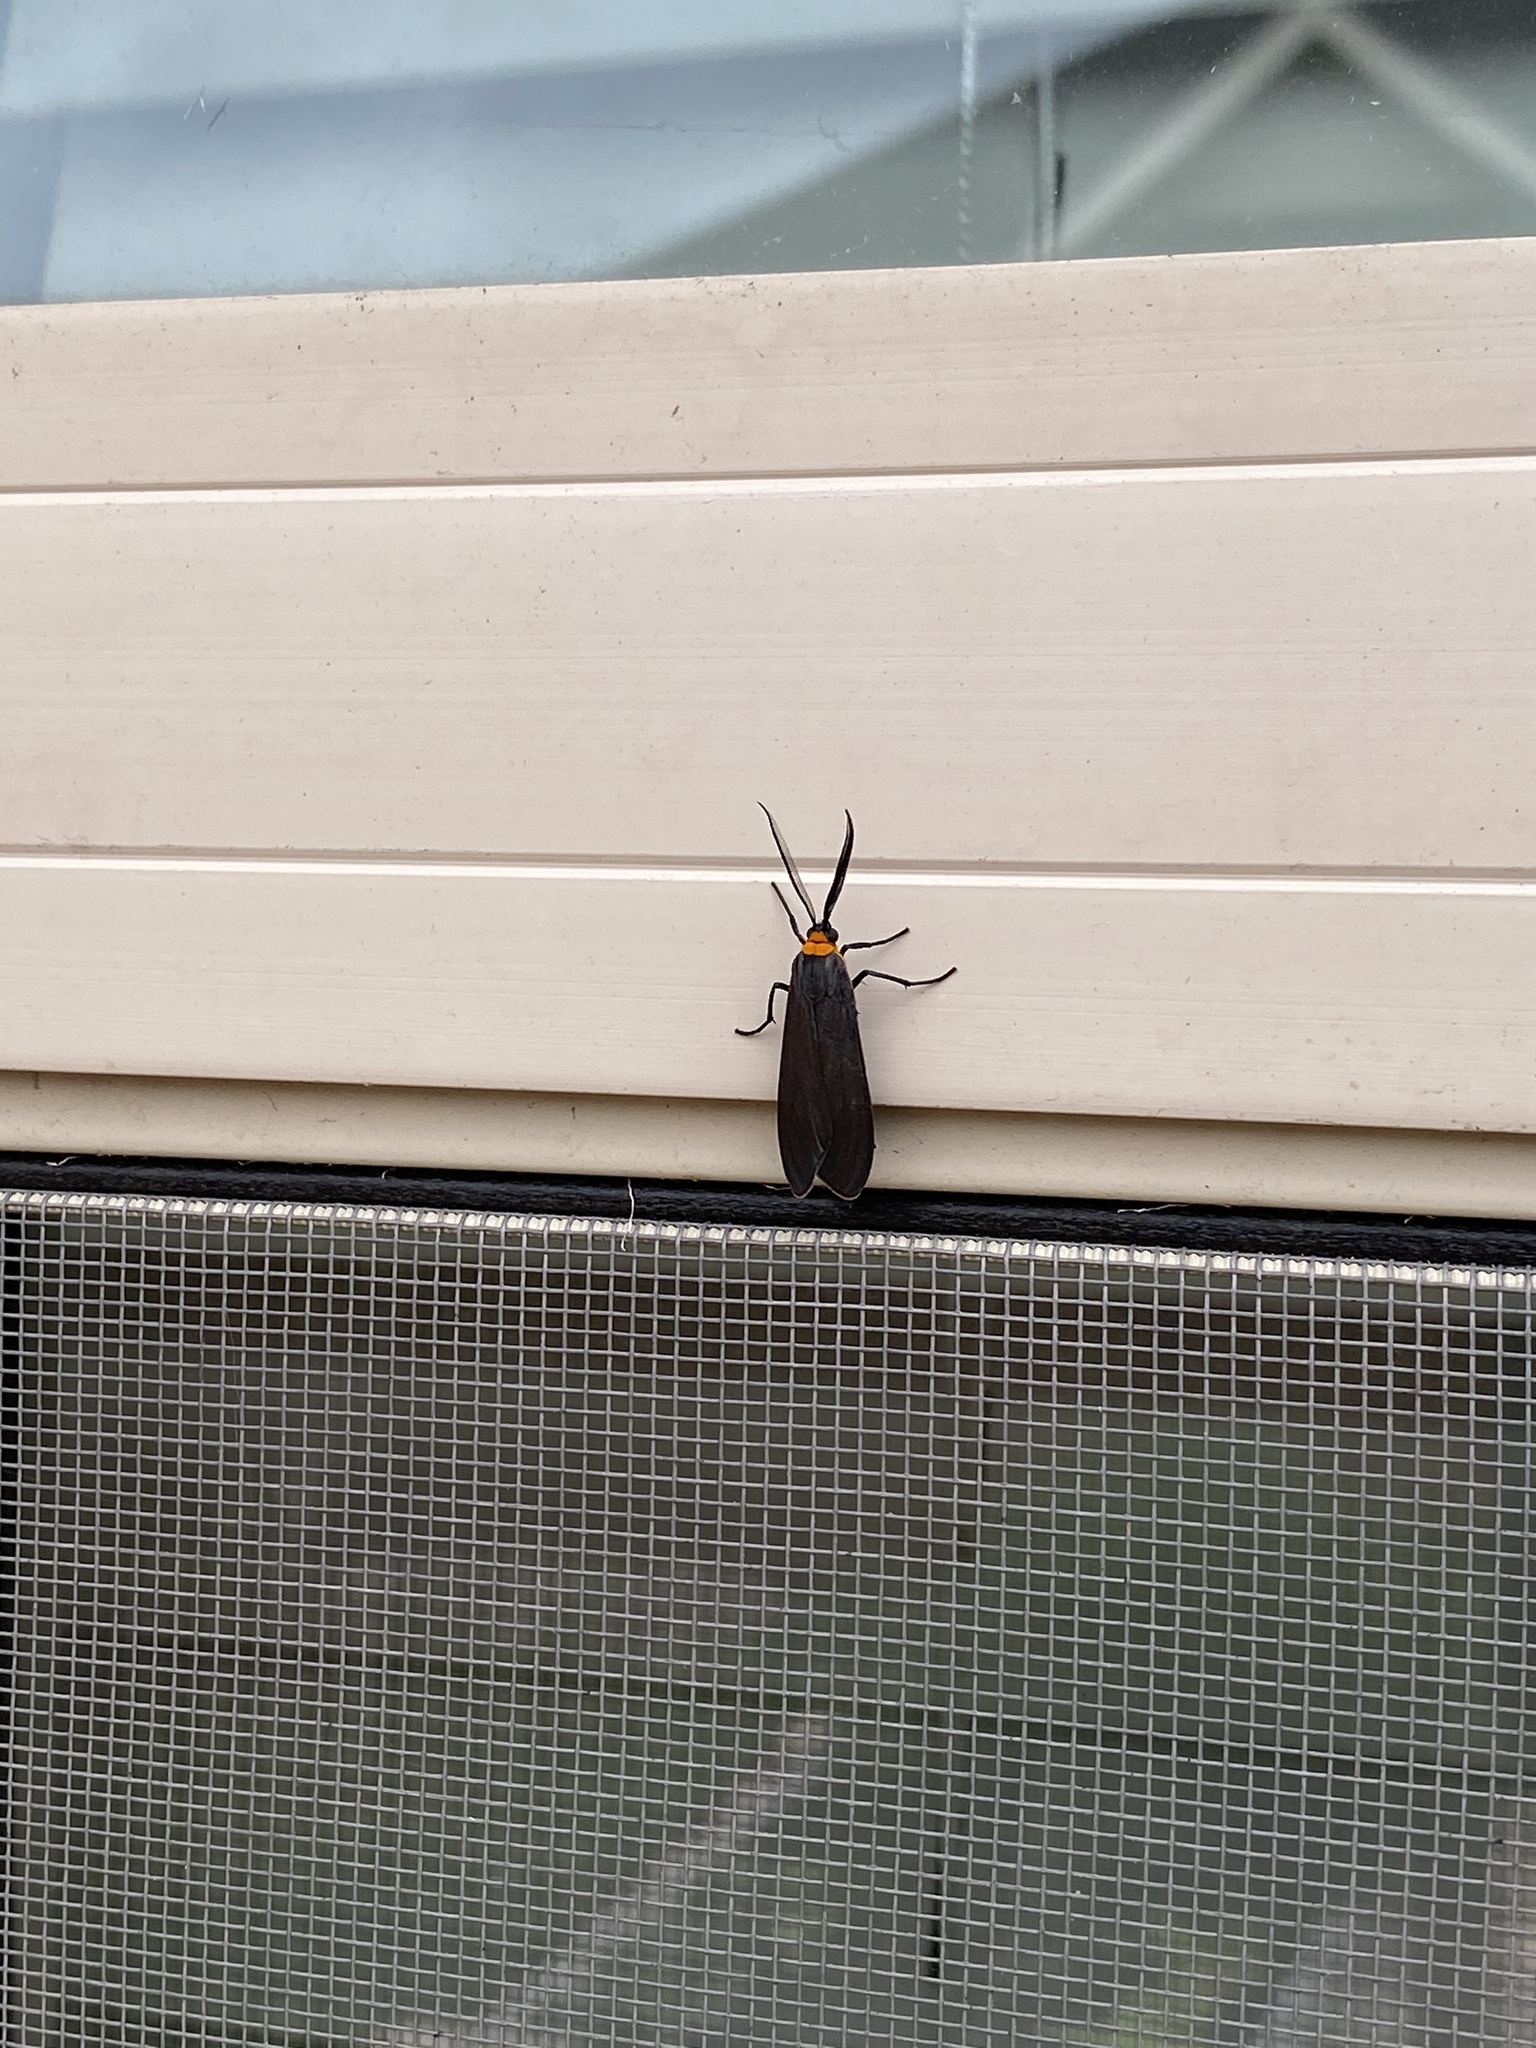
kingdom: Animalia
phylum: Arthropoda
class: Insecta
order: Lepidoptera
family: Erebidae
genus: Cisseps
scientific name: Cisseps fulvicollis
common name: Yellow-collared scape moth
